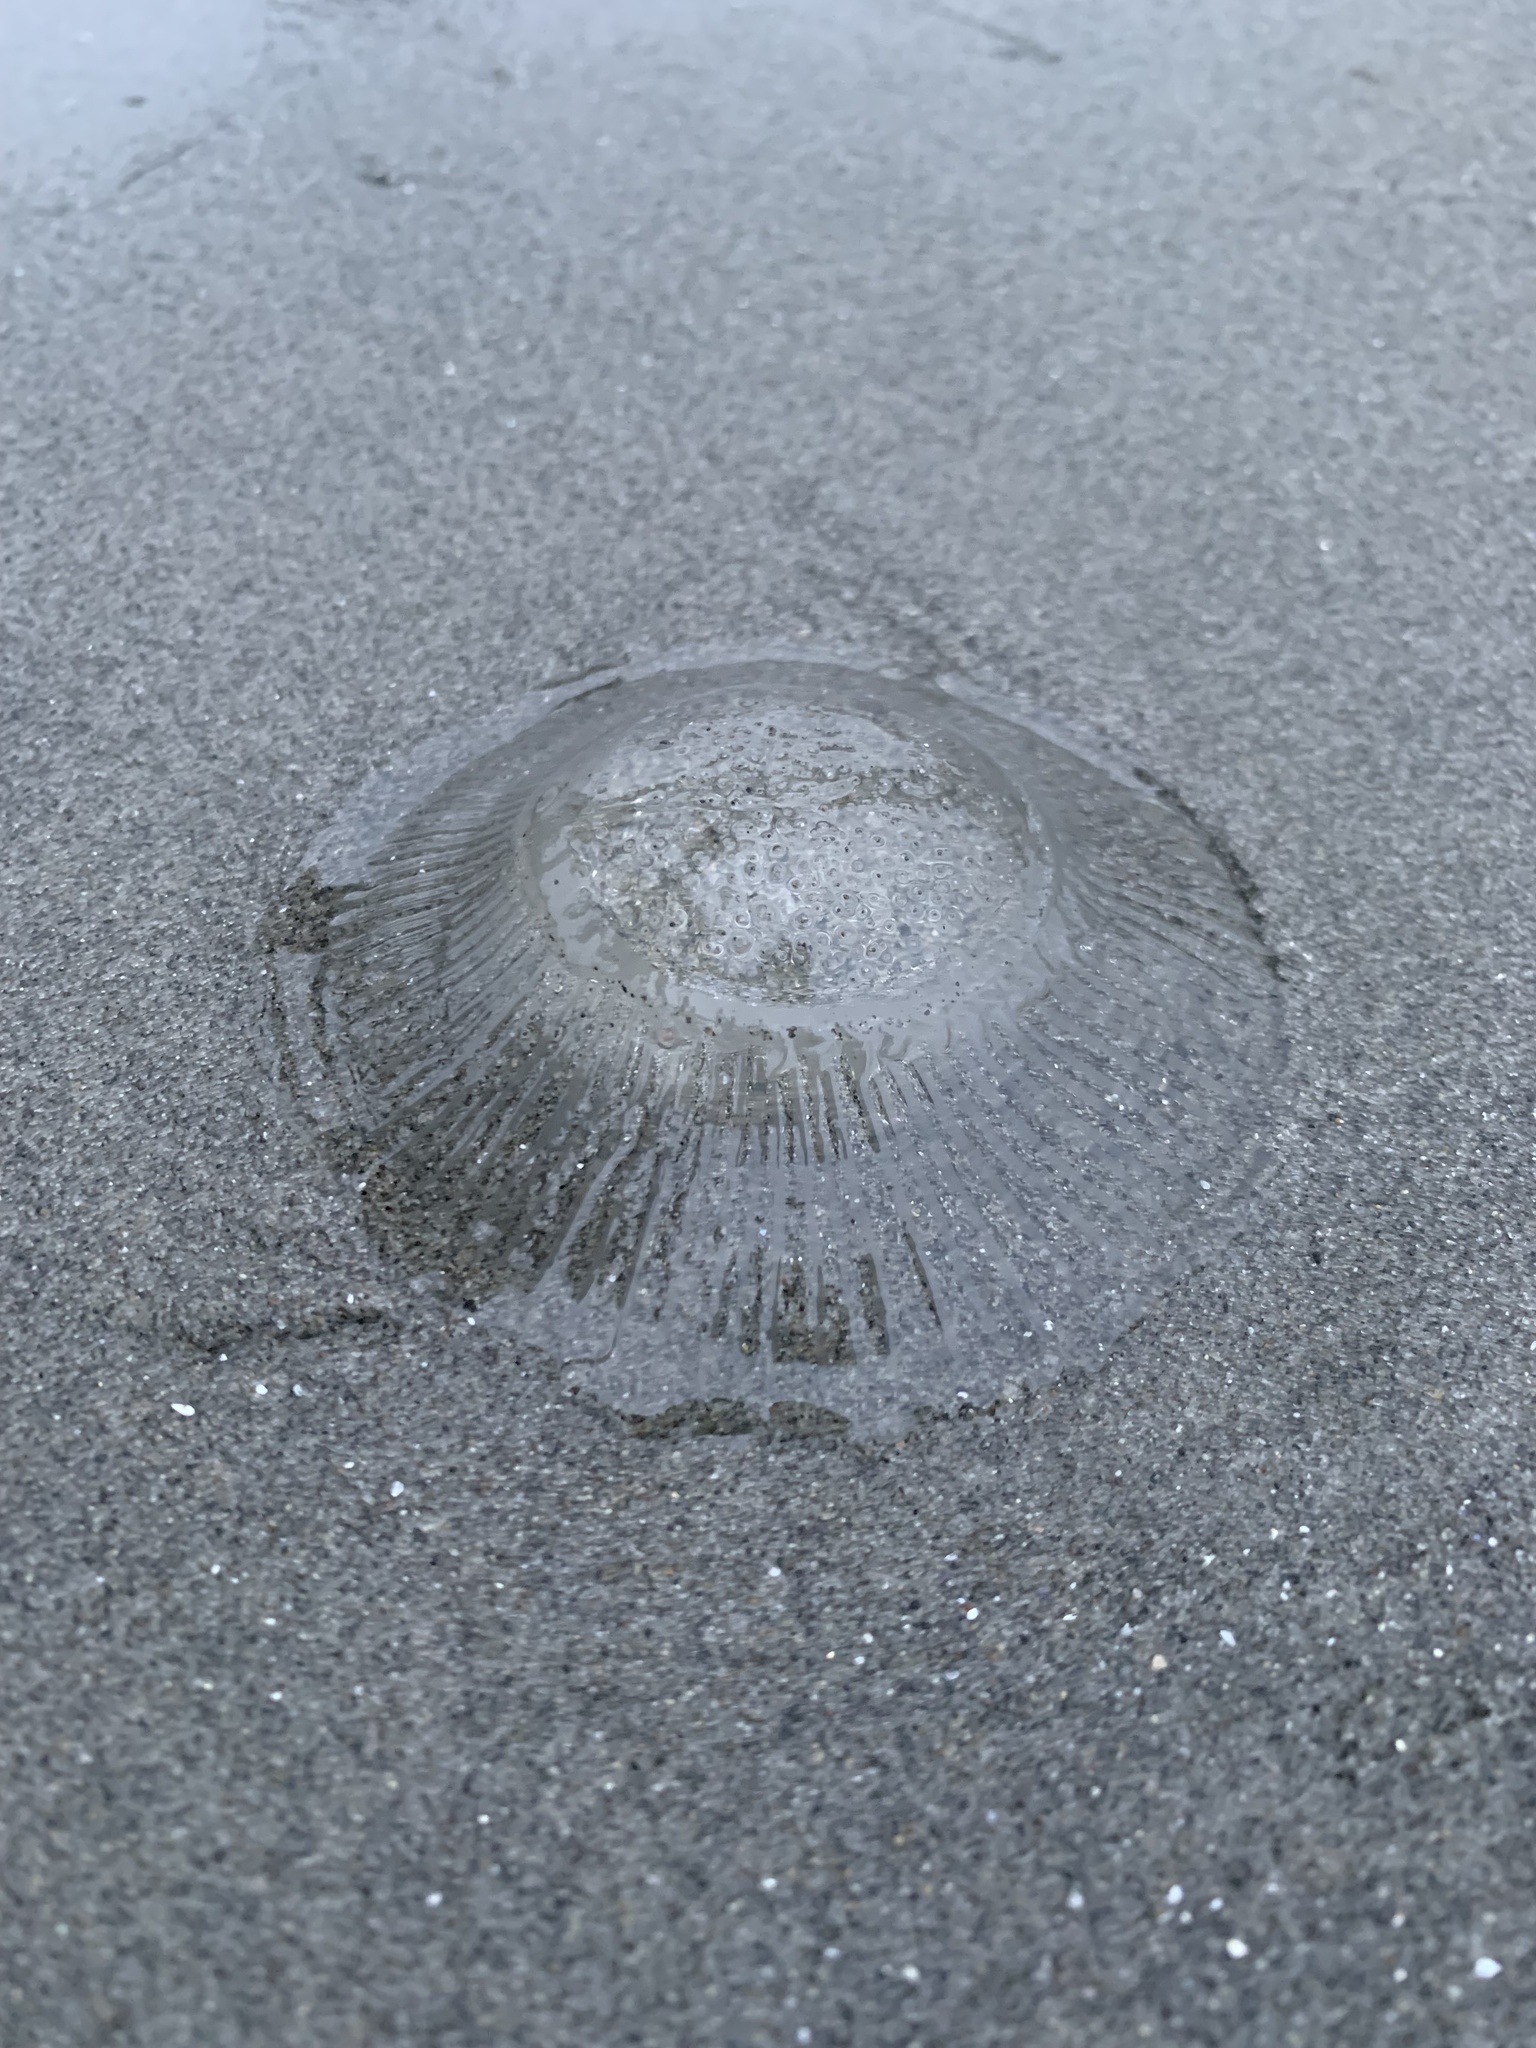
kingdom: Animalia
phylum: Cnidaria
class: Hydrozoa
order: Leptothecata
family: Aequoreidae
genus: Aequorea
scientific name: Aequorea victoria
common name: Water jellyfish
